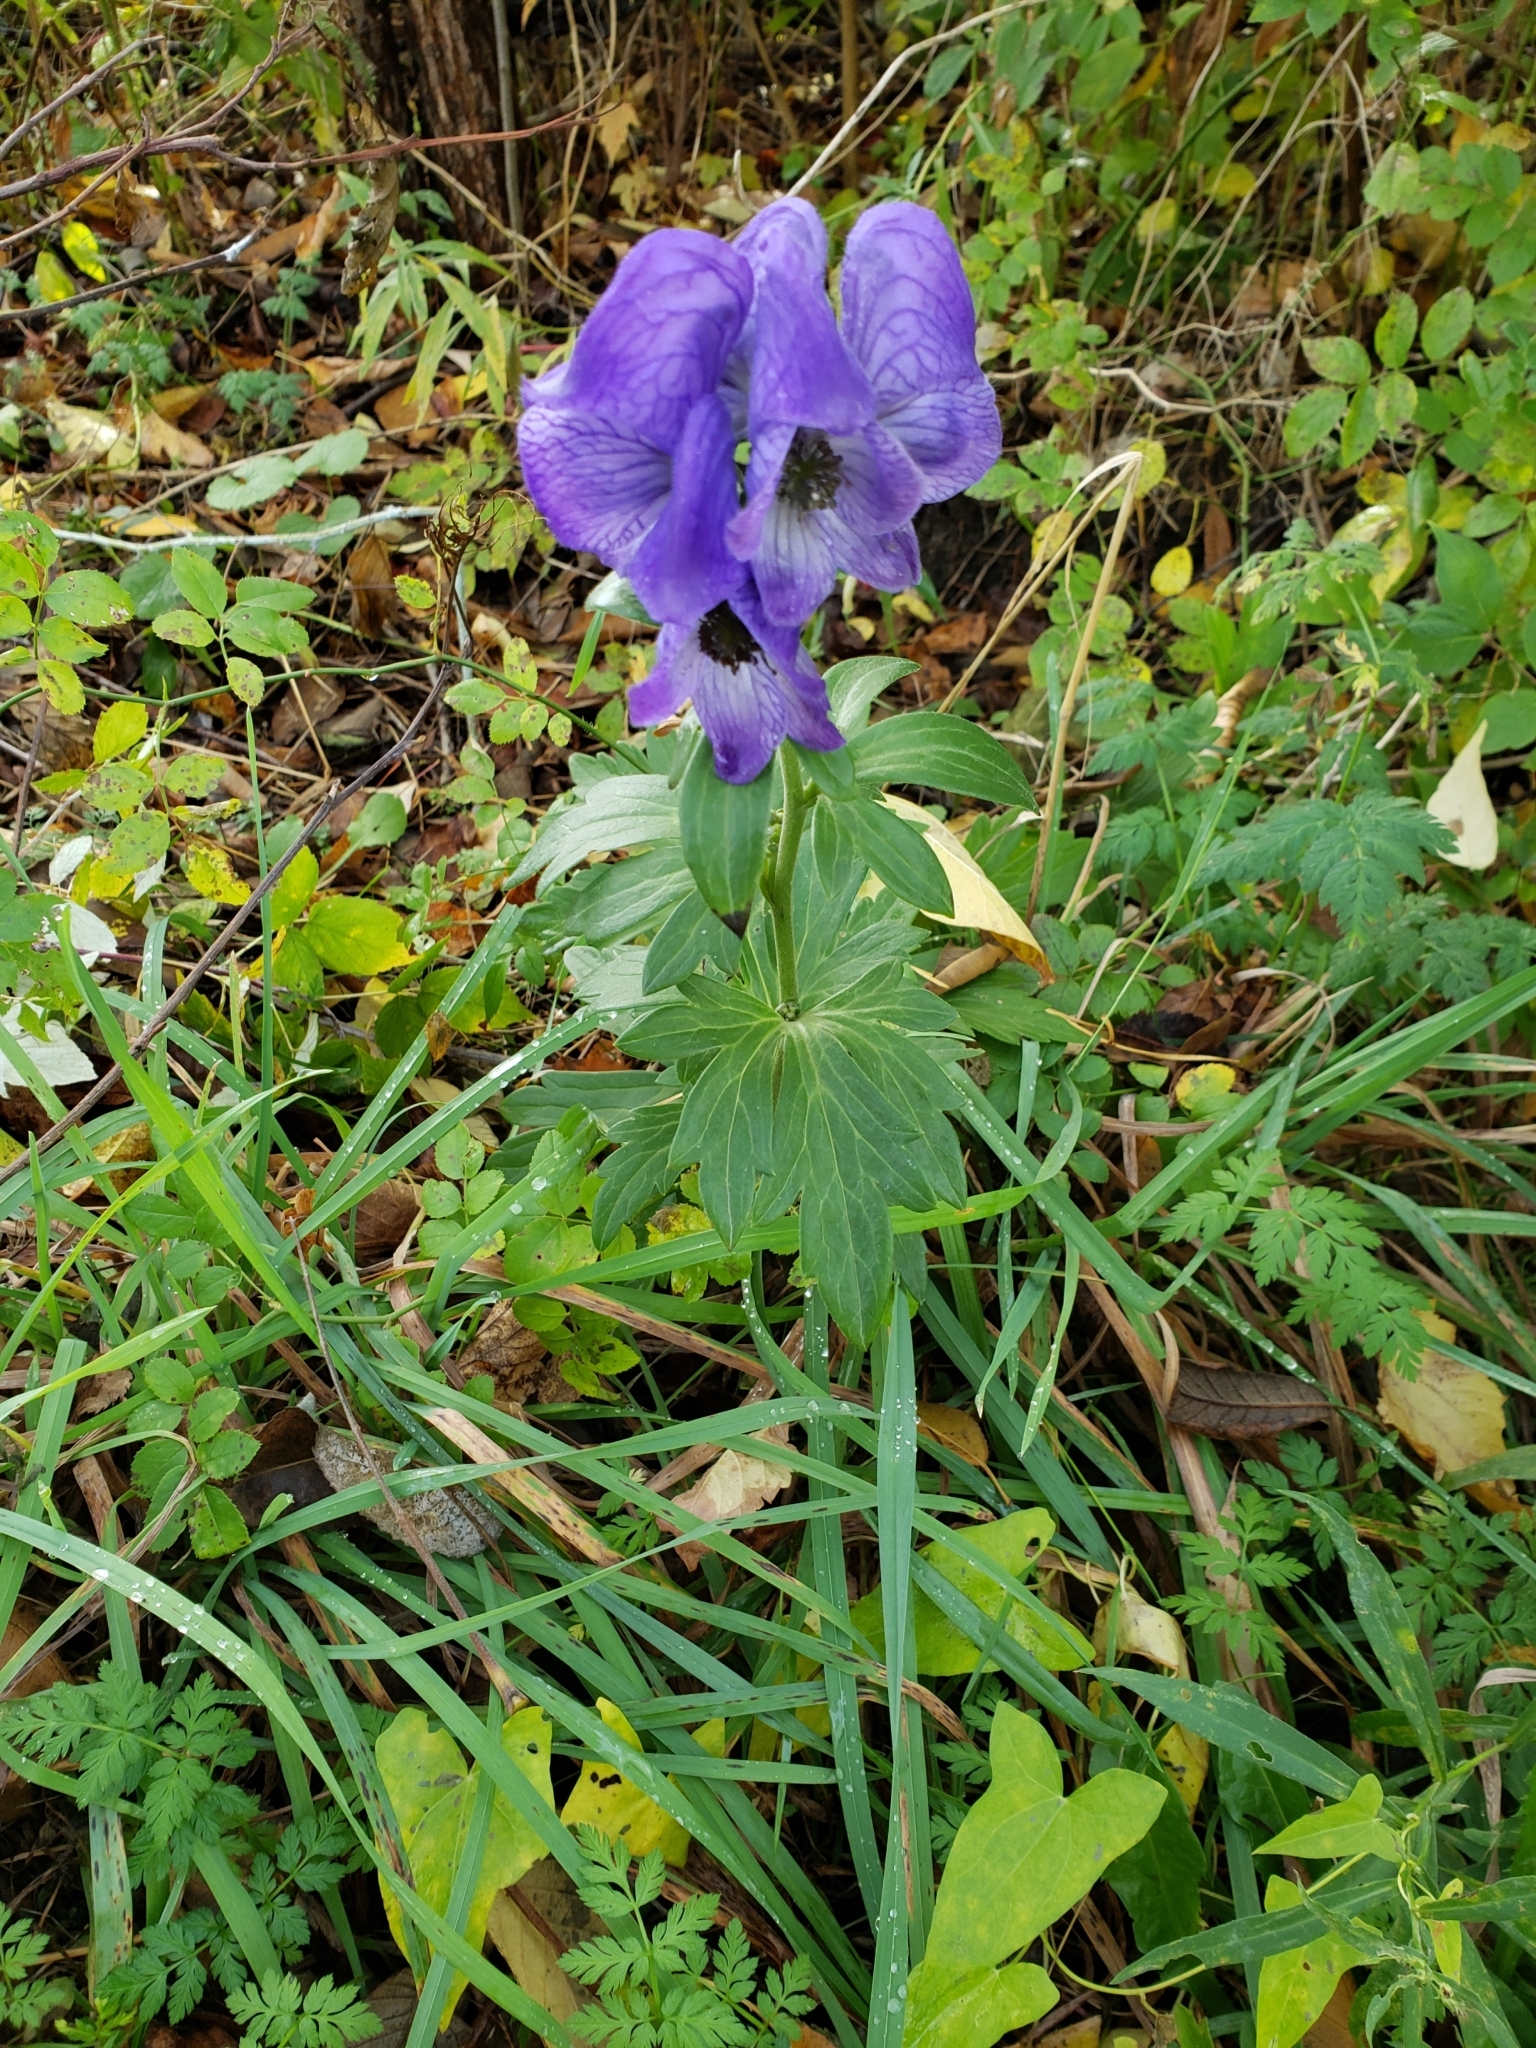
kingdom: Plantae
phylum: Tracheophyta
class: Magnoliopsida
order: Ranunculales
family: Ranunculaceae
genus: Aconitum
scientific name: Aconitum napellus
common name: Garden monkshood
